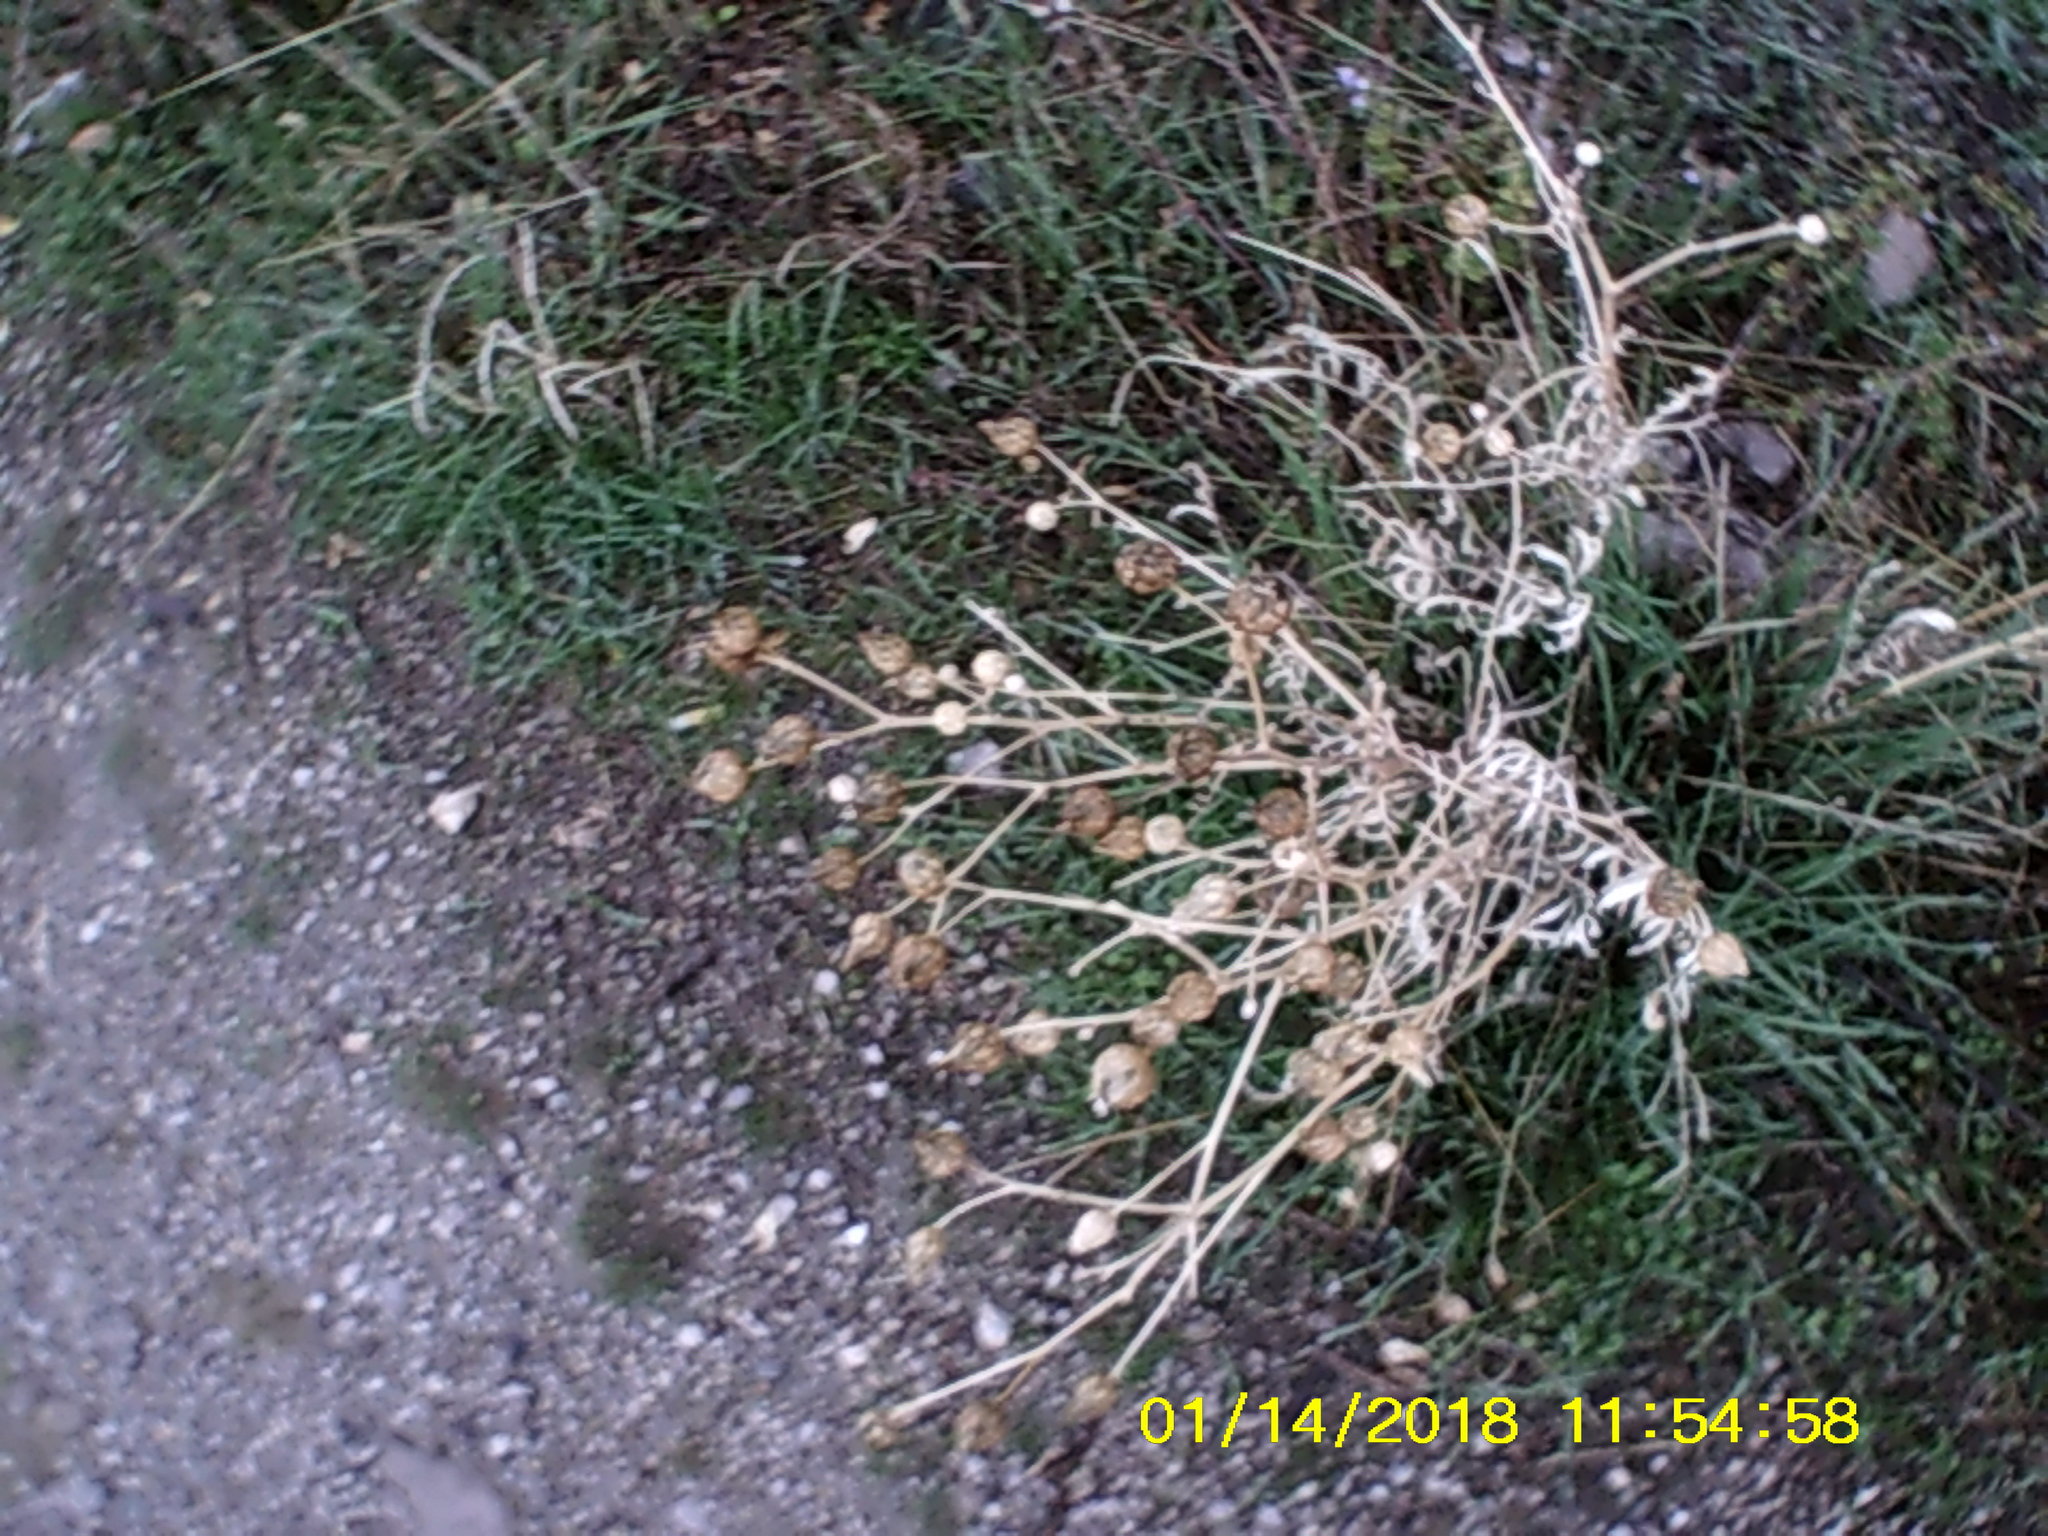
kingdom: Plantae
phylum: Tracheophyta
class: Magnoliopsida
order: Sapindales
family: Tetradiclidaceae
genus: Peganum
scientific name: Peganum harmala
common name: Harmal peganum
